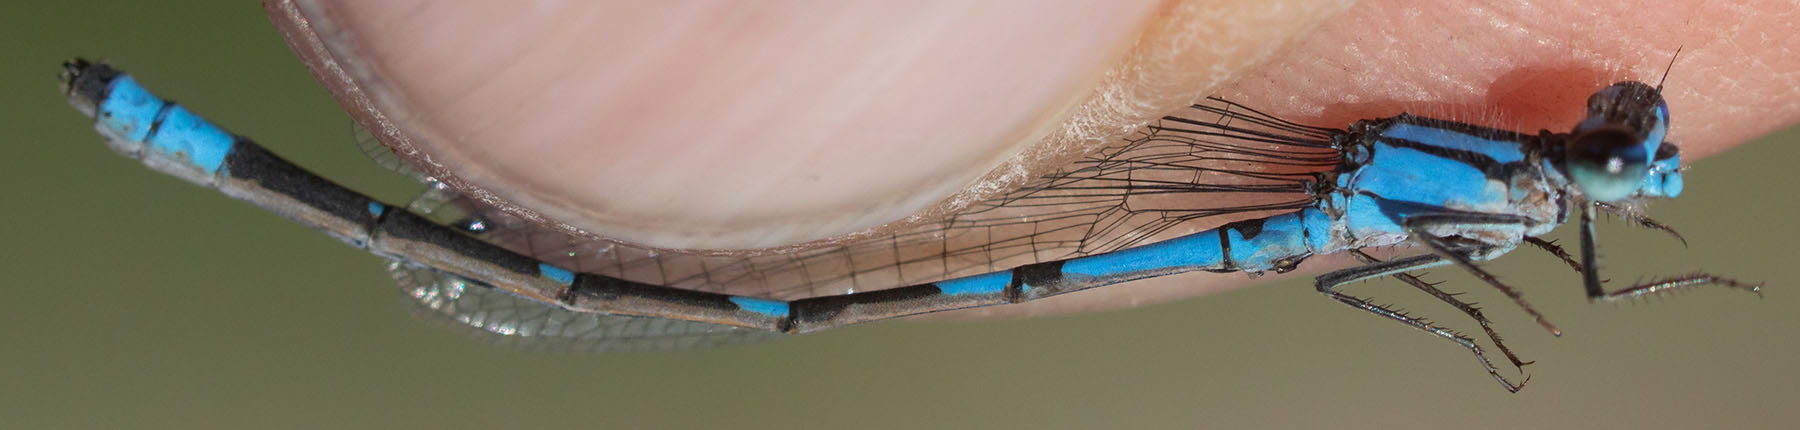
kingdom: Animalia
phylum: Arthropoda
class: Insecta
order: Odonata
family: Coenagrionidae
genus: Enallagma
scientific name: Enallagma praevarum
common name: Arroyo bluet
